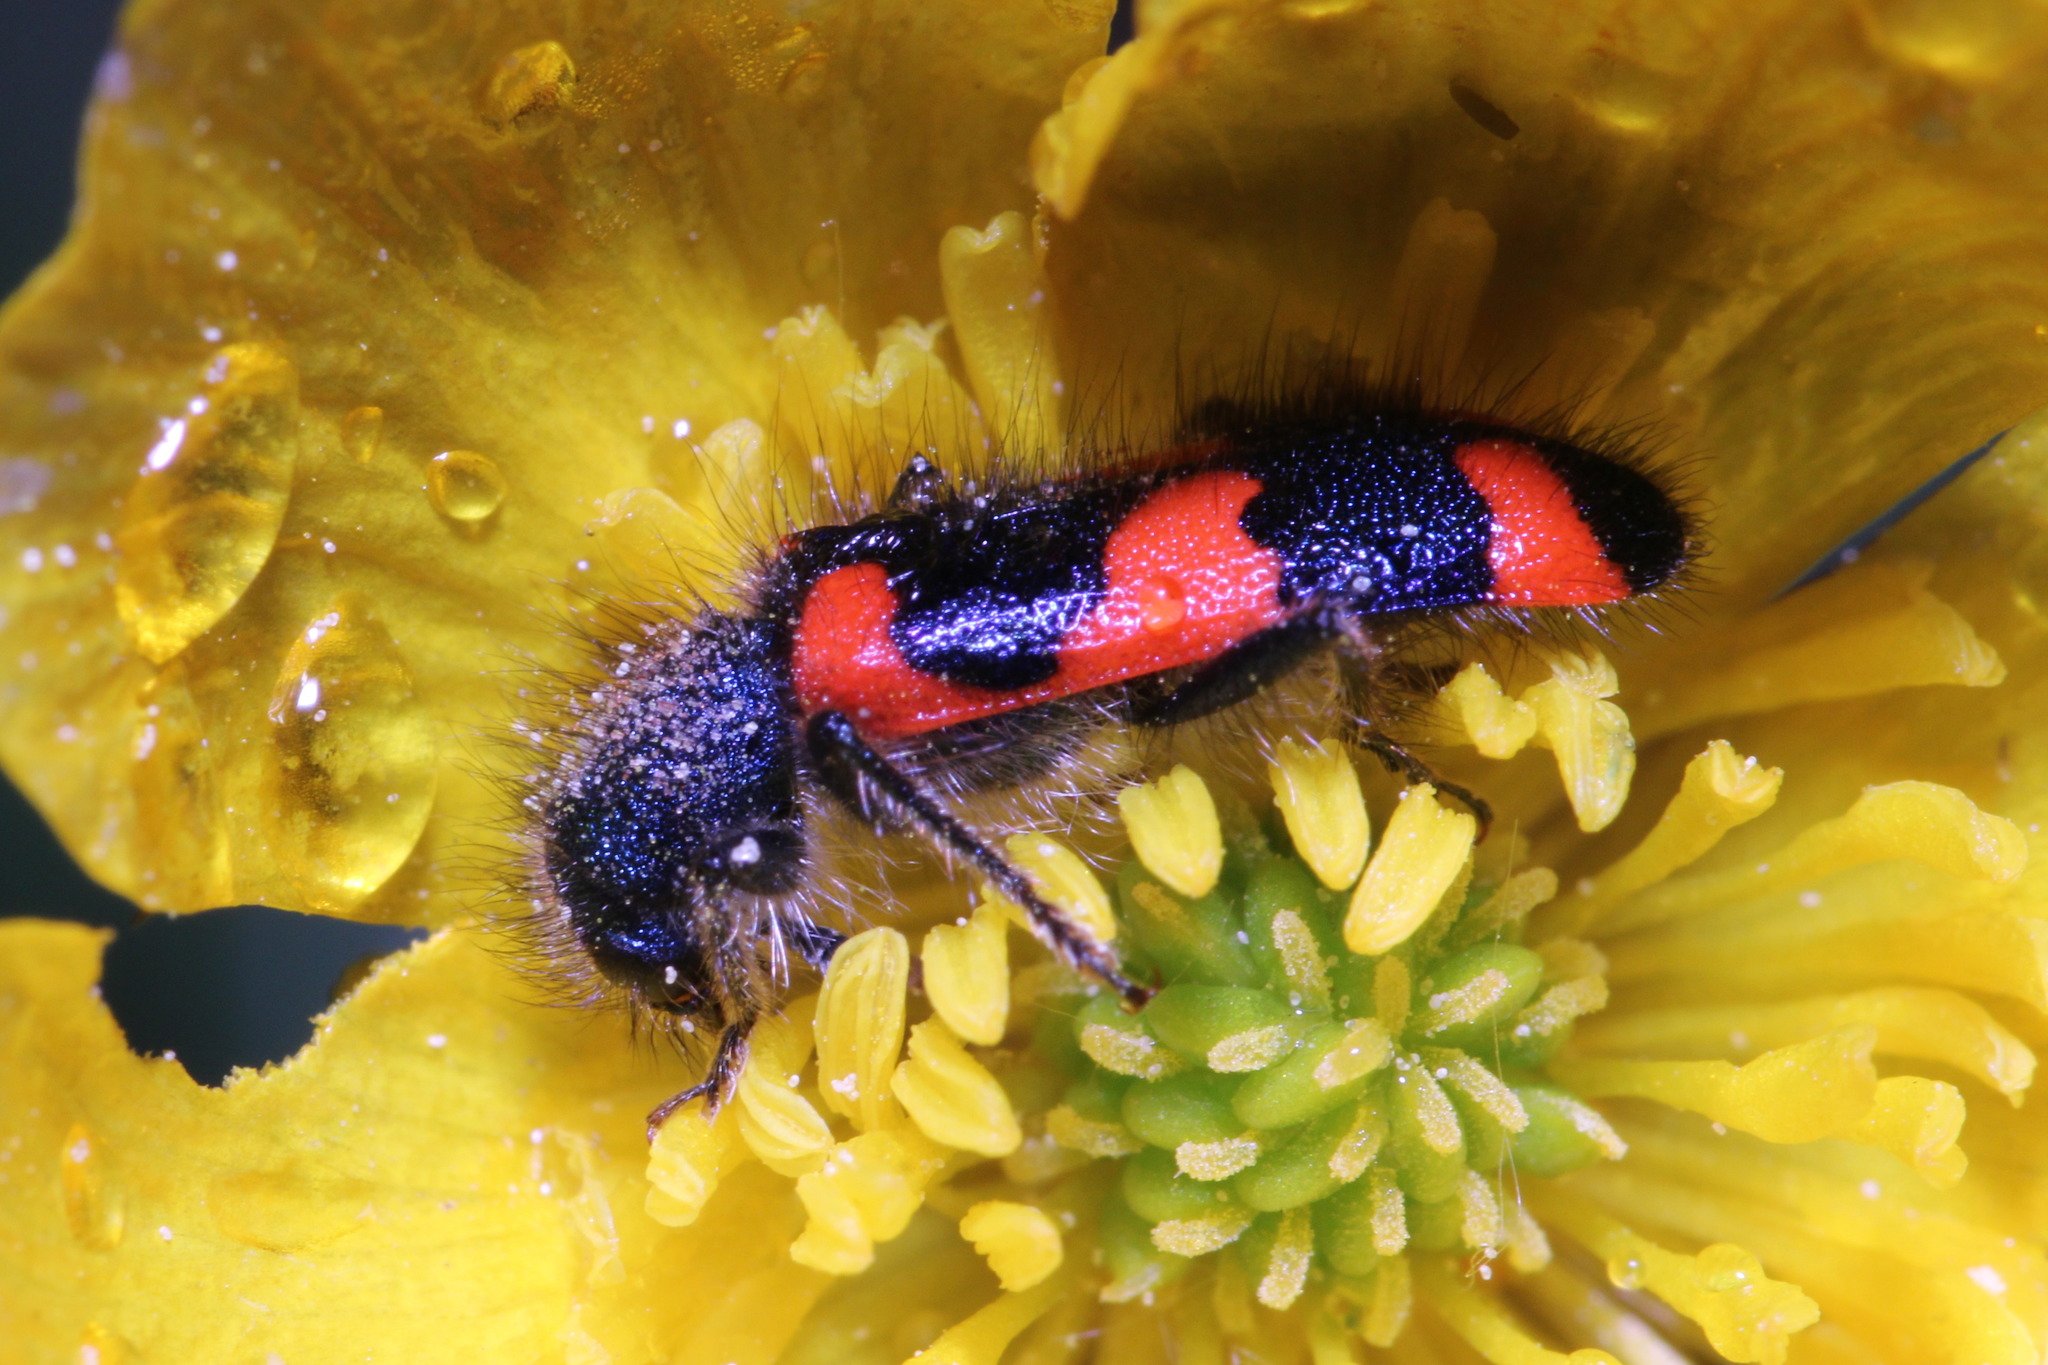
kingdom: Animalia
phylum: Arthropoda
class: Insecta
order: Coleoptera
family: Cleridae
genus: Trichodes
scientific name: Trichodes favarius
